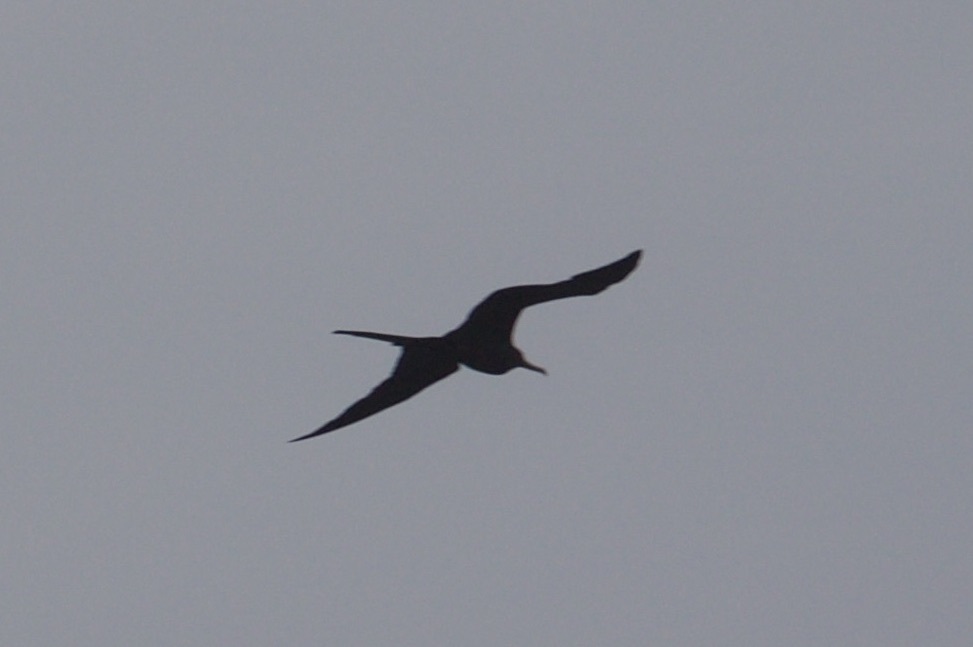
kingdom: Animalia
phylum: Chordata
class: Aves
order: Suliformes
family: Fregatidae
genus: Fregata
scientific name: Fregata magnificens
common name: Magnificent frigatebird
